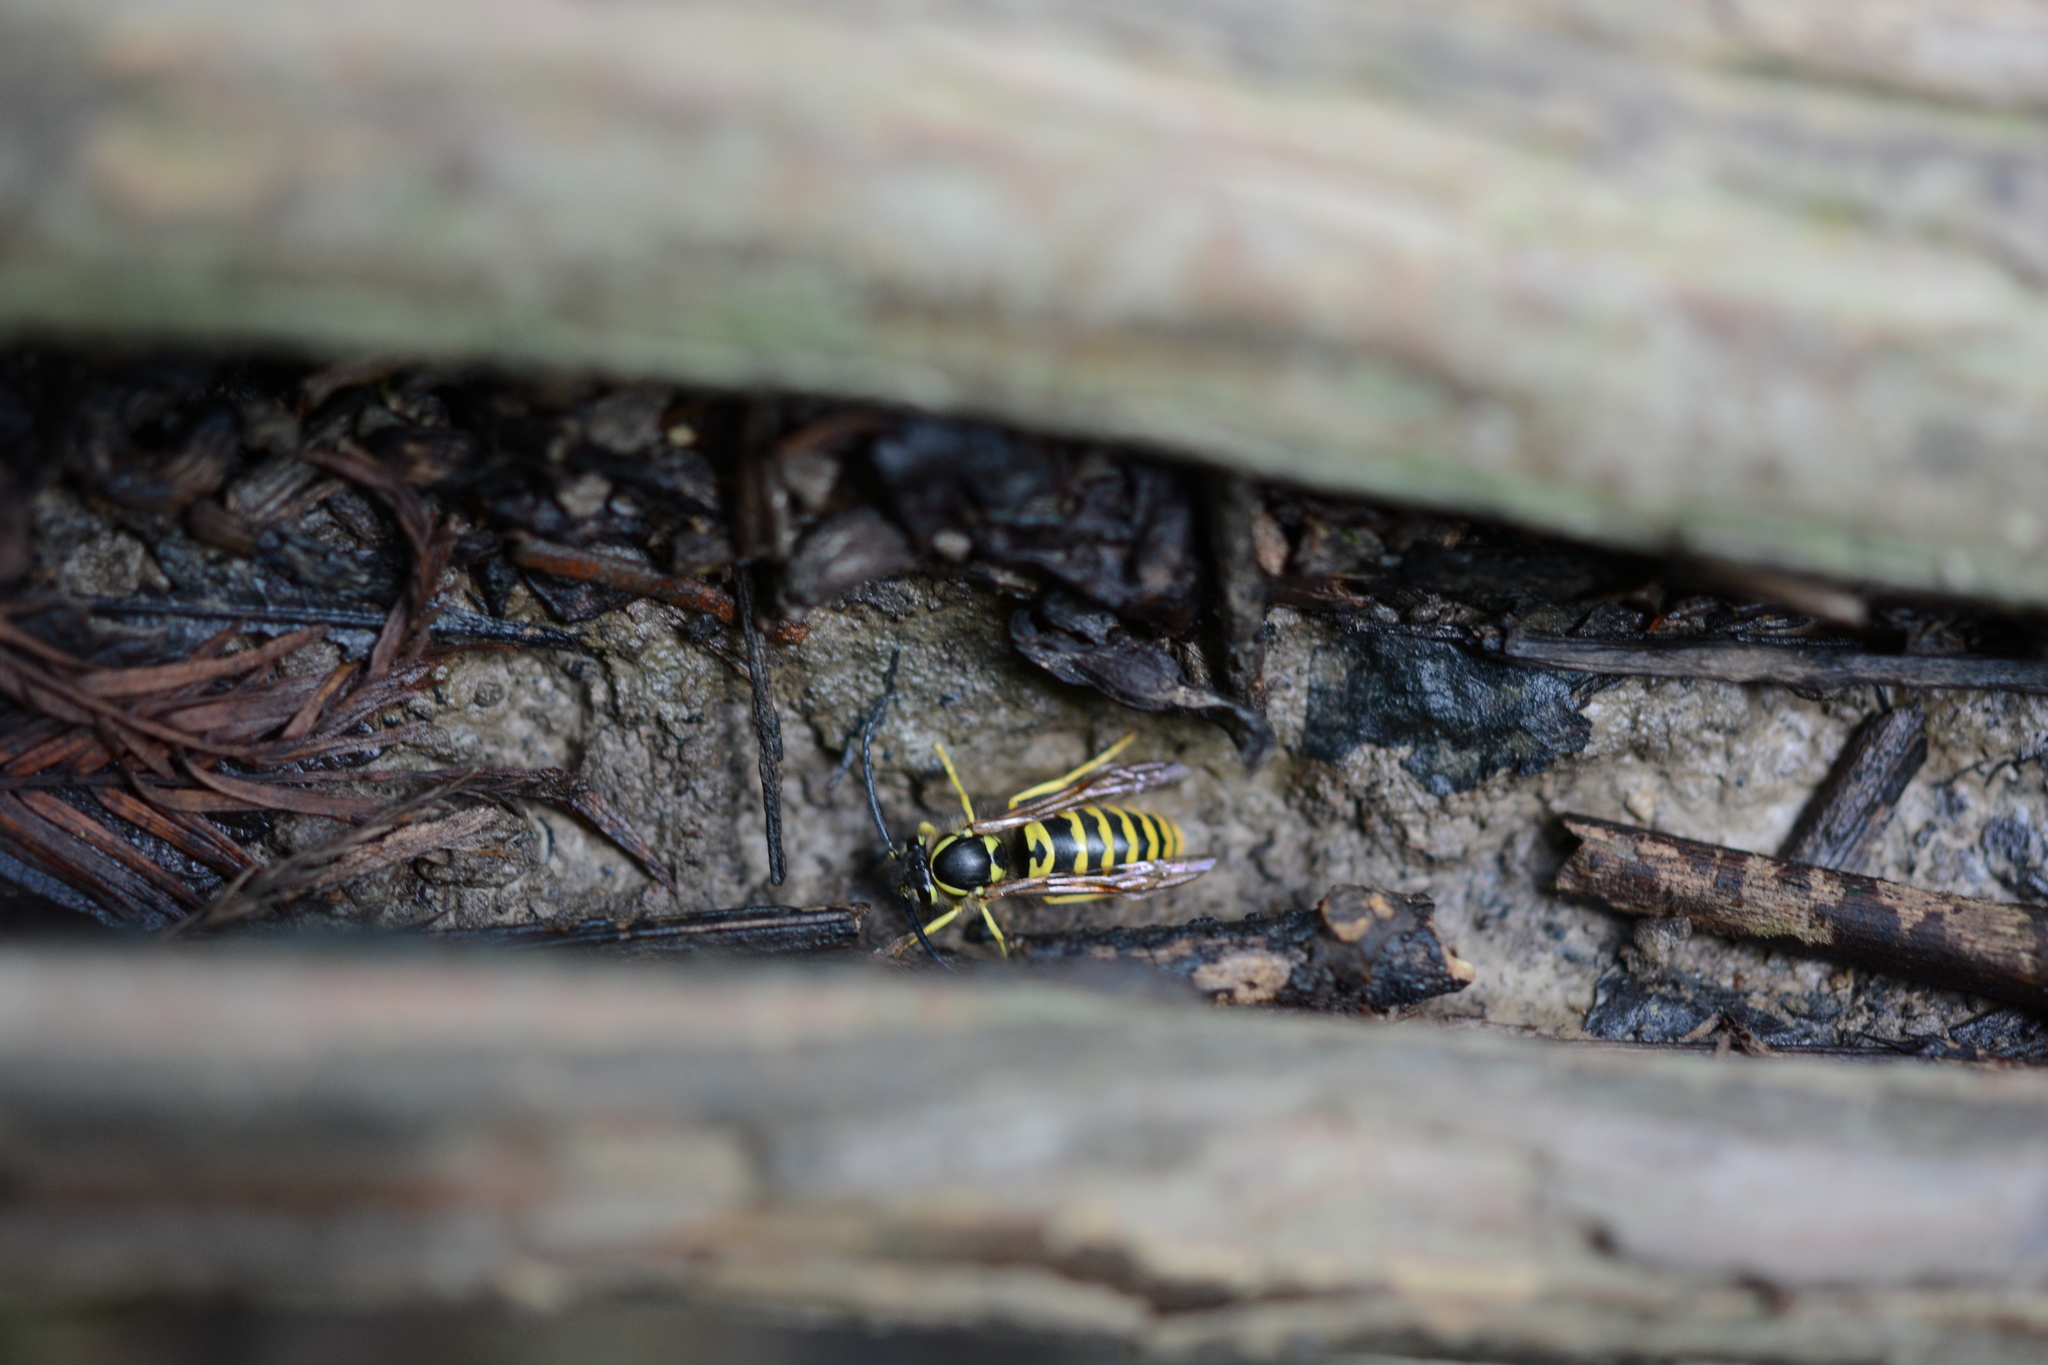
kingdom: Animalia
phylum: Arthropoda
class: Insecta
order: Hymenoptera
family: Vespidae
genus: Vespula
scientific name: Vespula maculifrons
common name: Eastern yellowjacket
